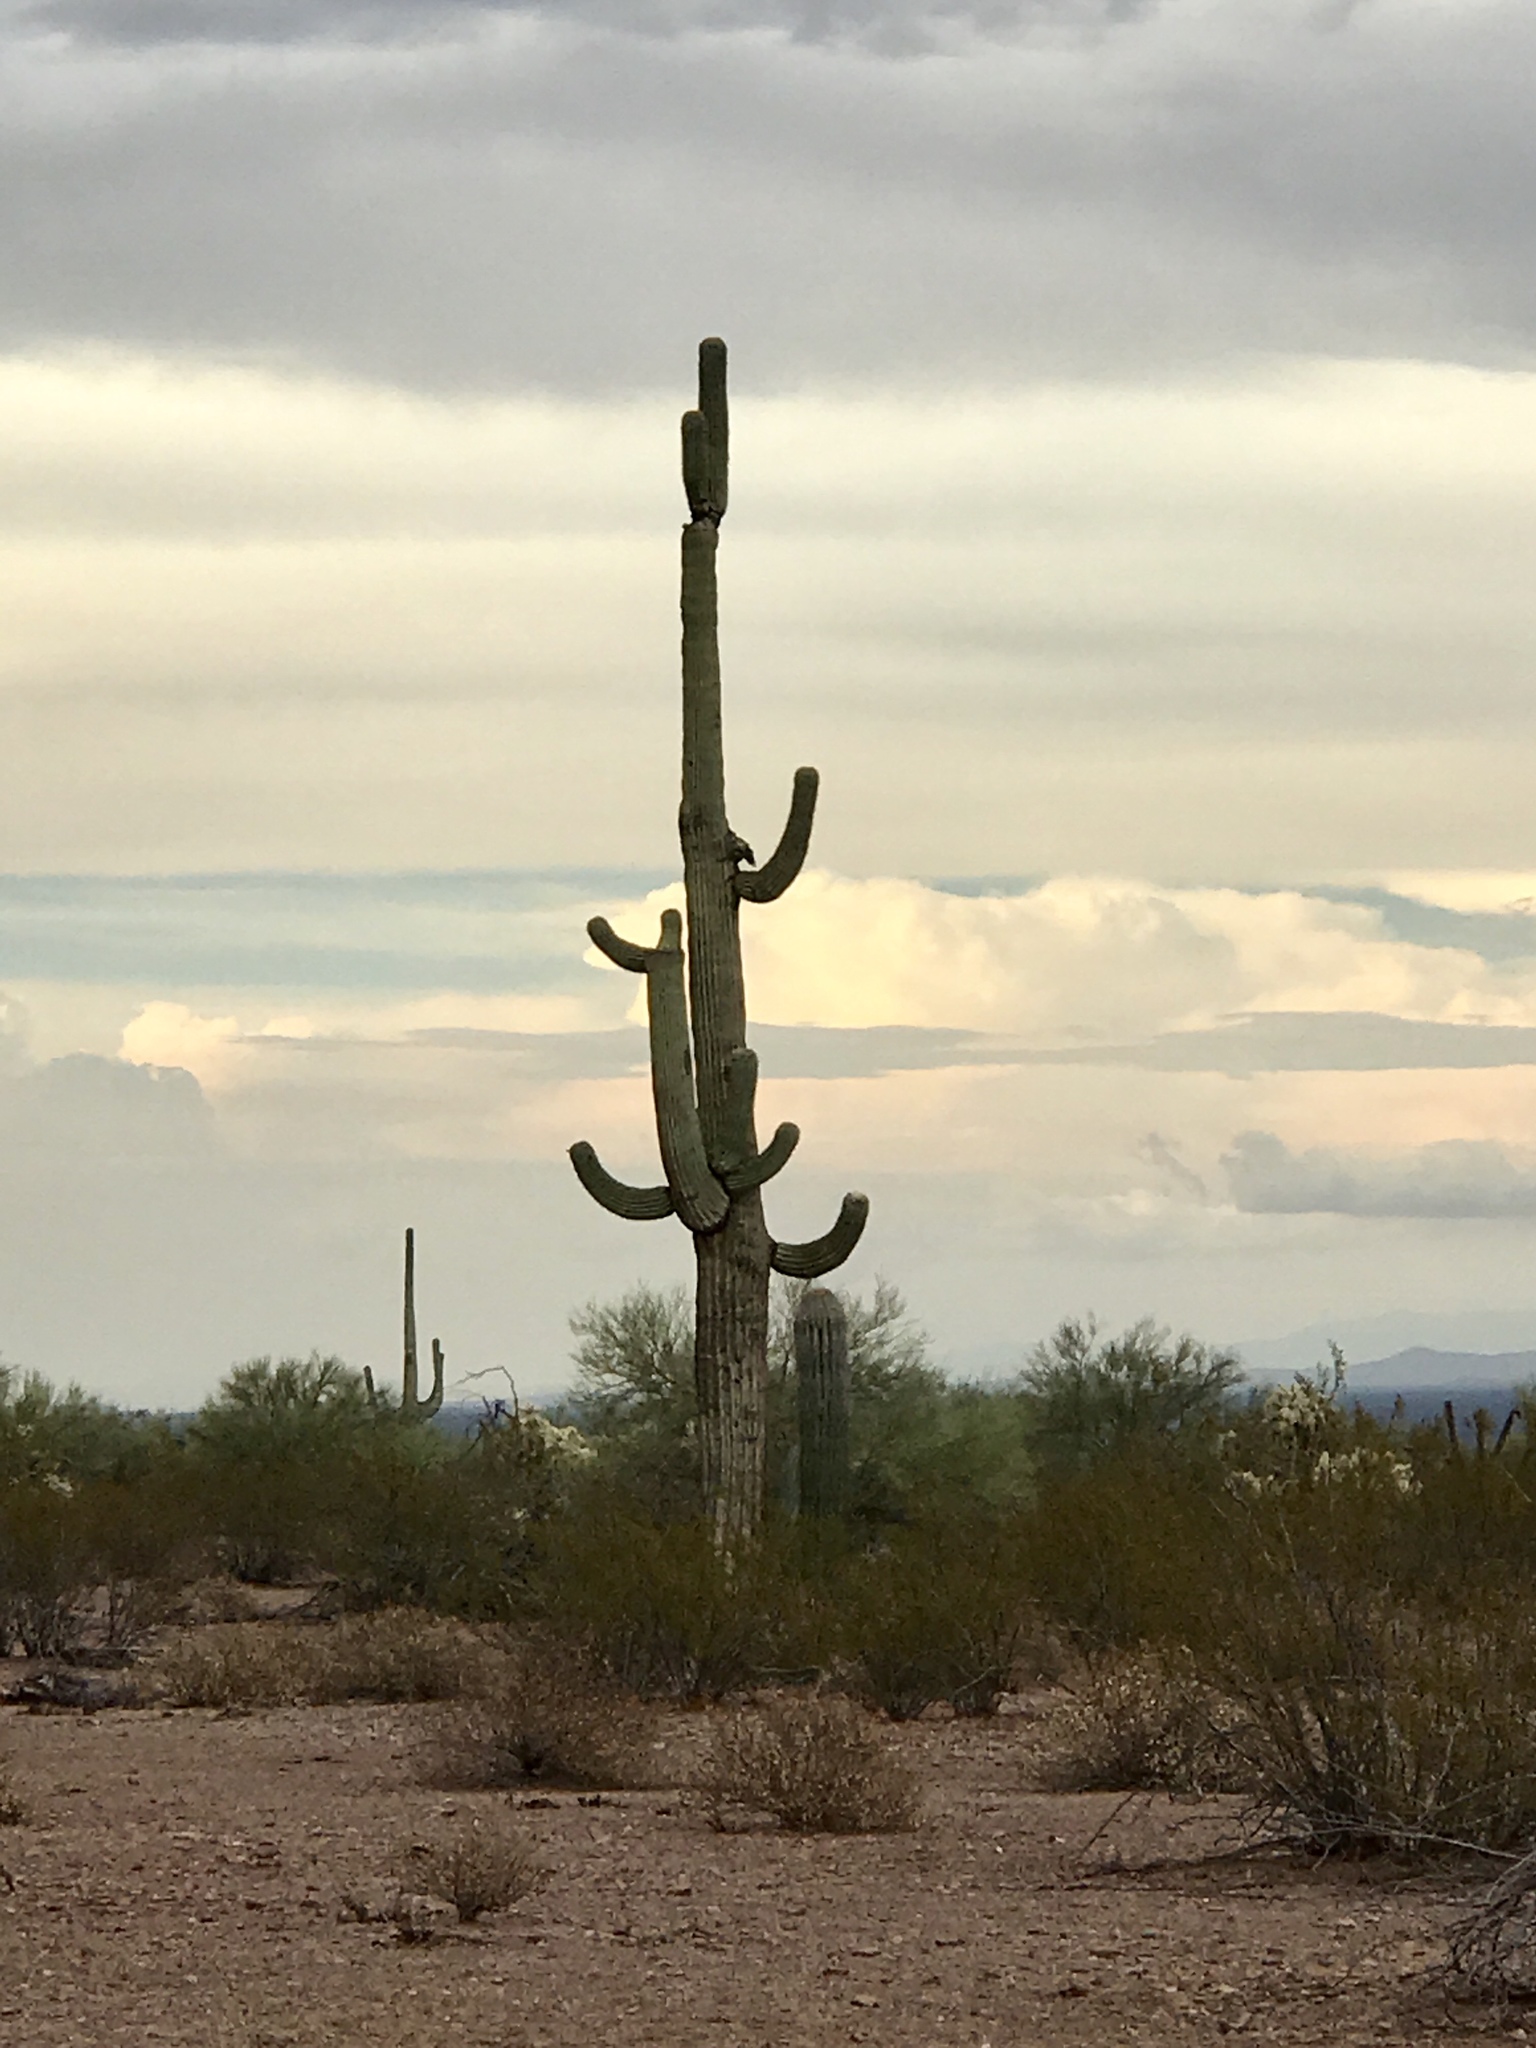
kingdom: Plantae
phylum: Tracheophyta
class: Magnoliopsida
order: Caryophyllales
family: Cactaceae
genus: Carnegiea
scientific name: Carnegiea gigantea
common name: Saguaro
